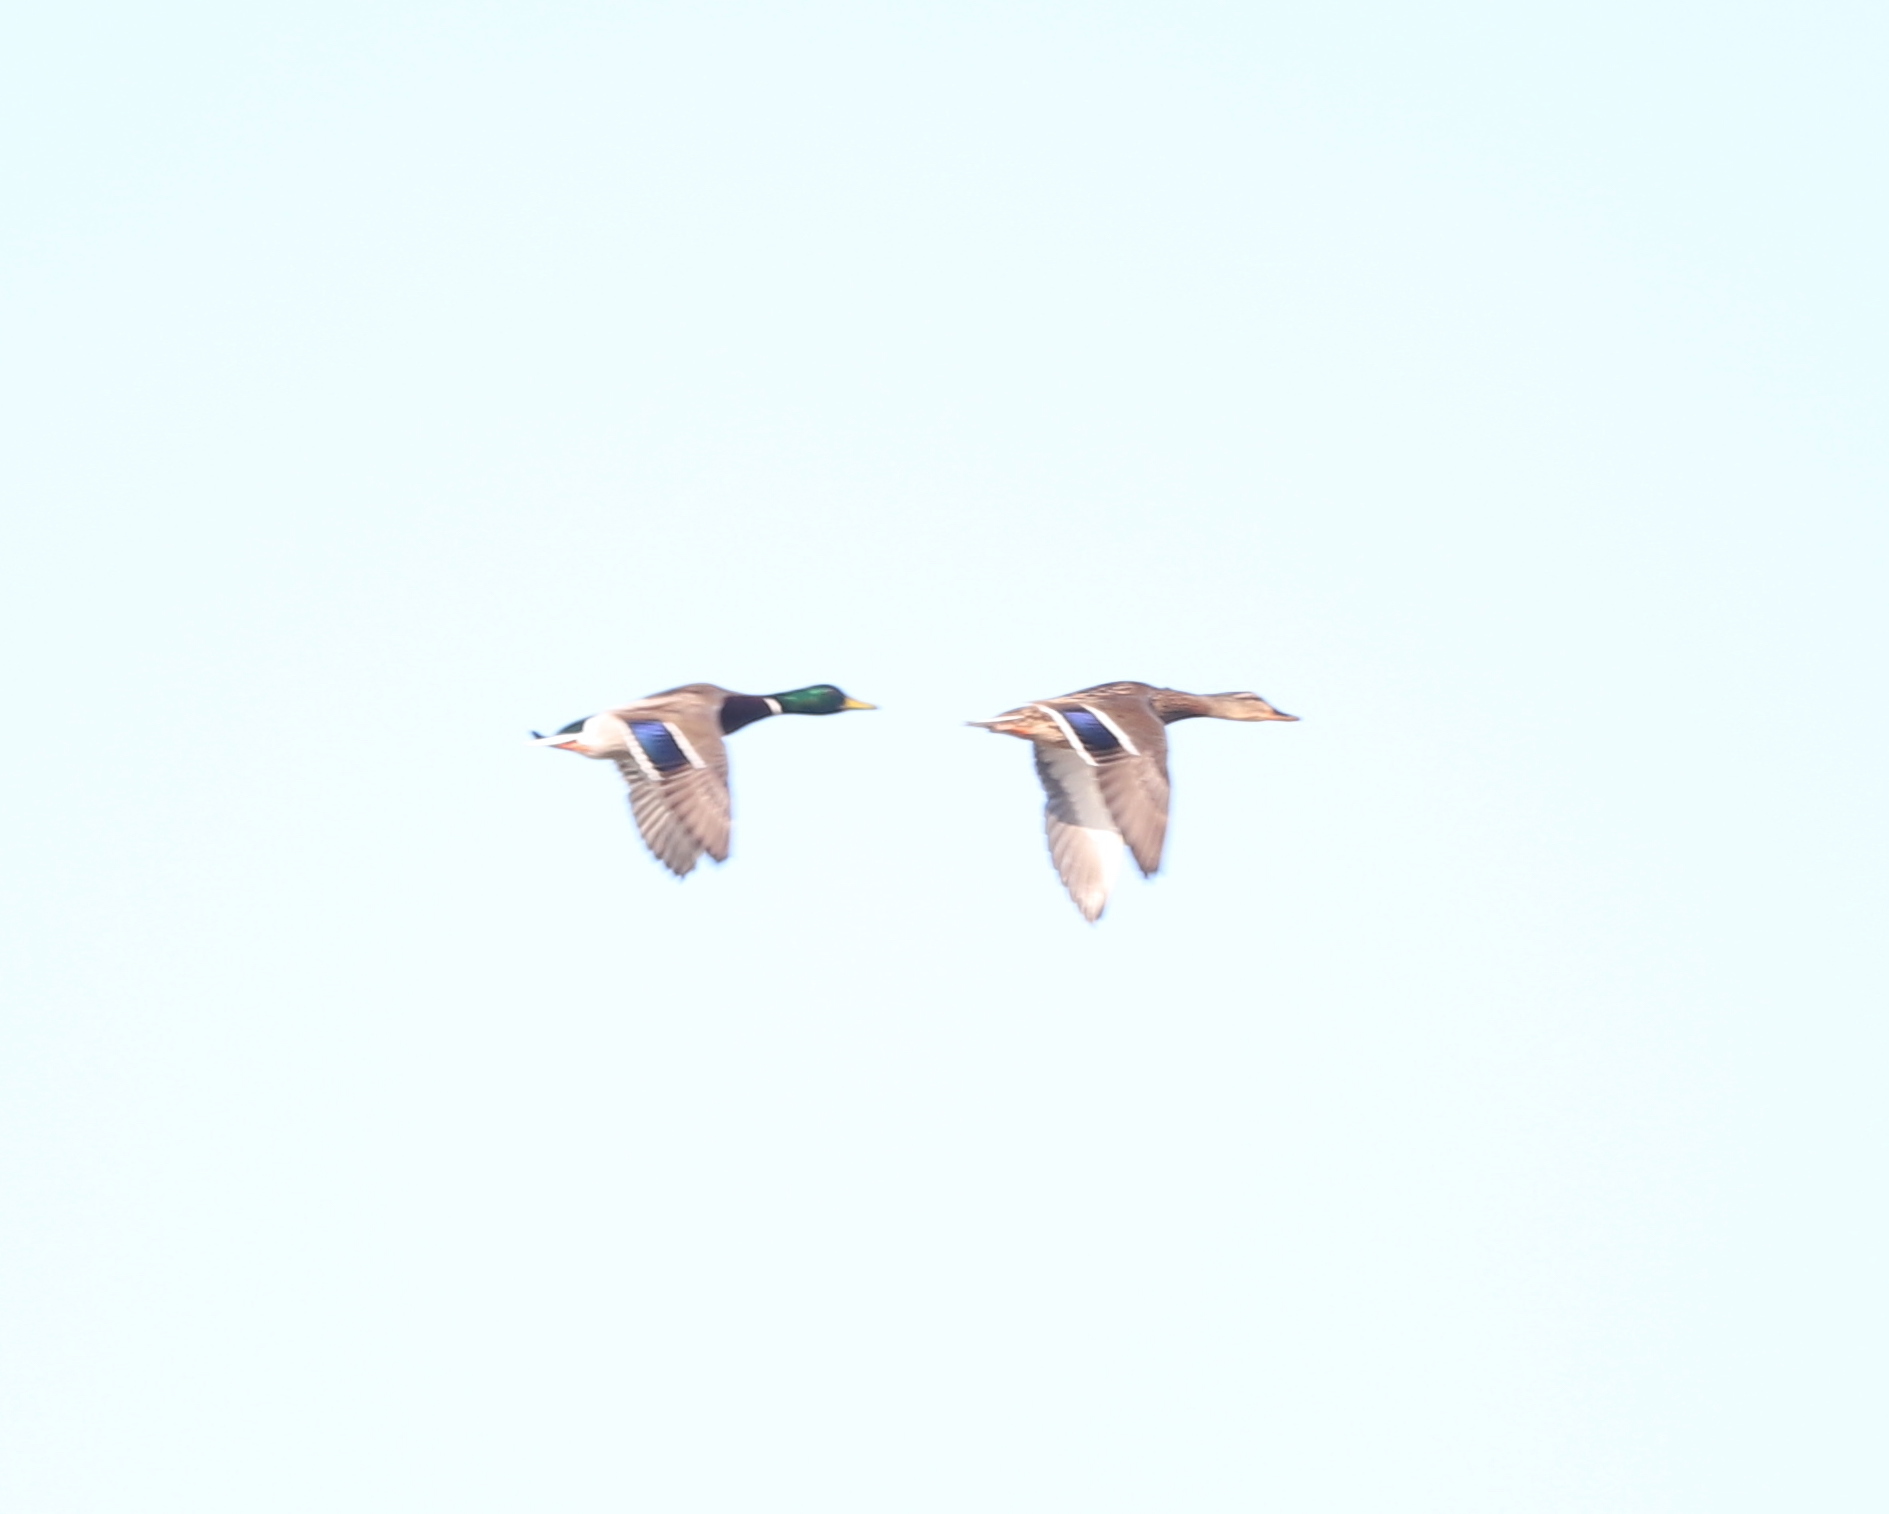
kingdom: Animalia
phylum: Chordata
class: Aves
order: Anseriformes
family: Anatidae
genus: Anas
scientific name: Anas platyrhynchos
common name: Mallard
